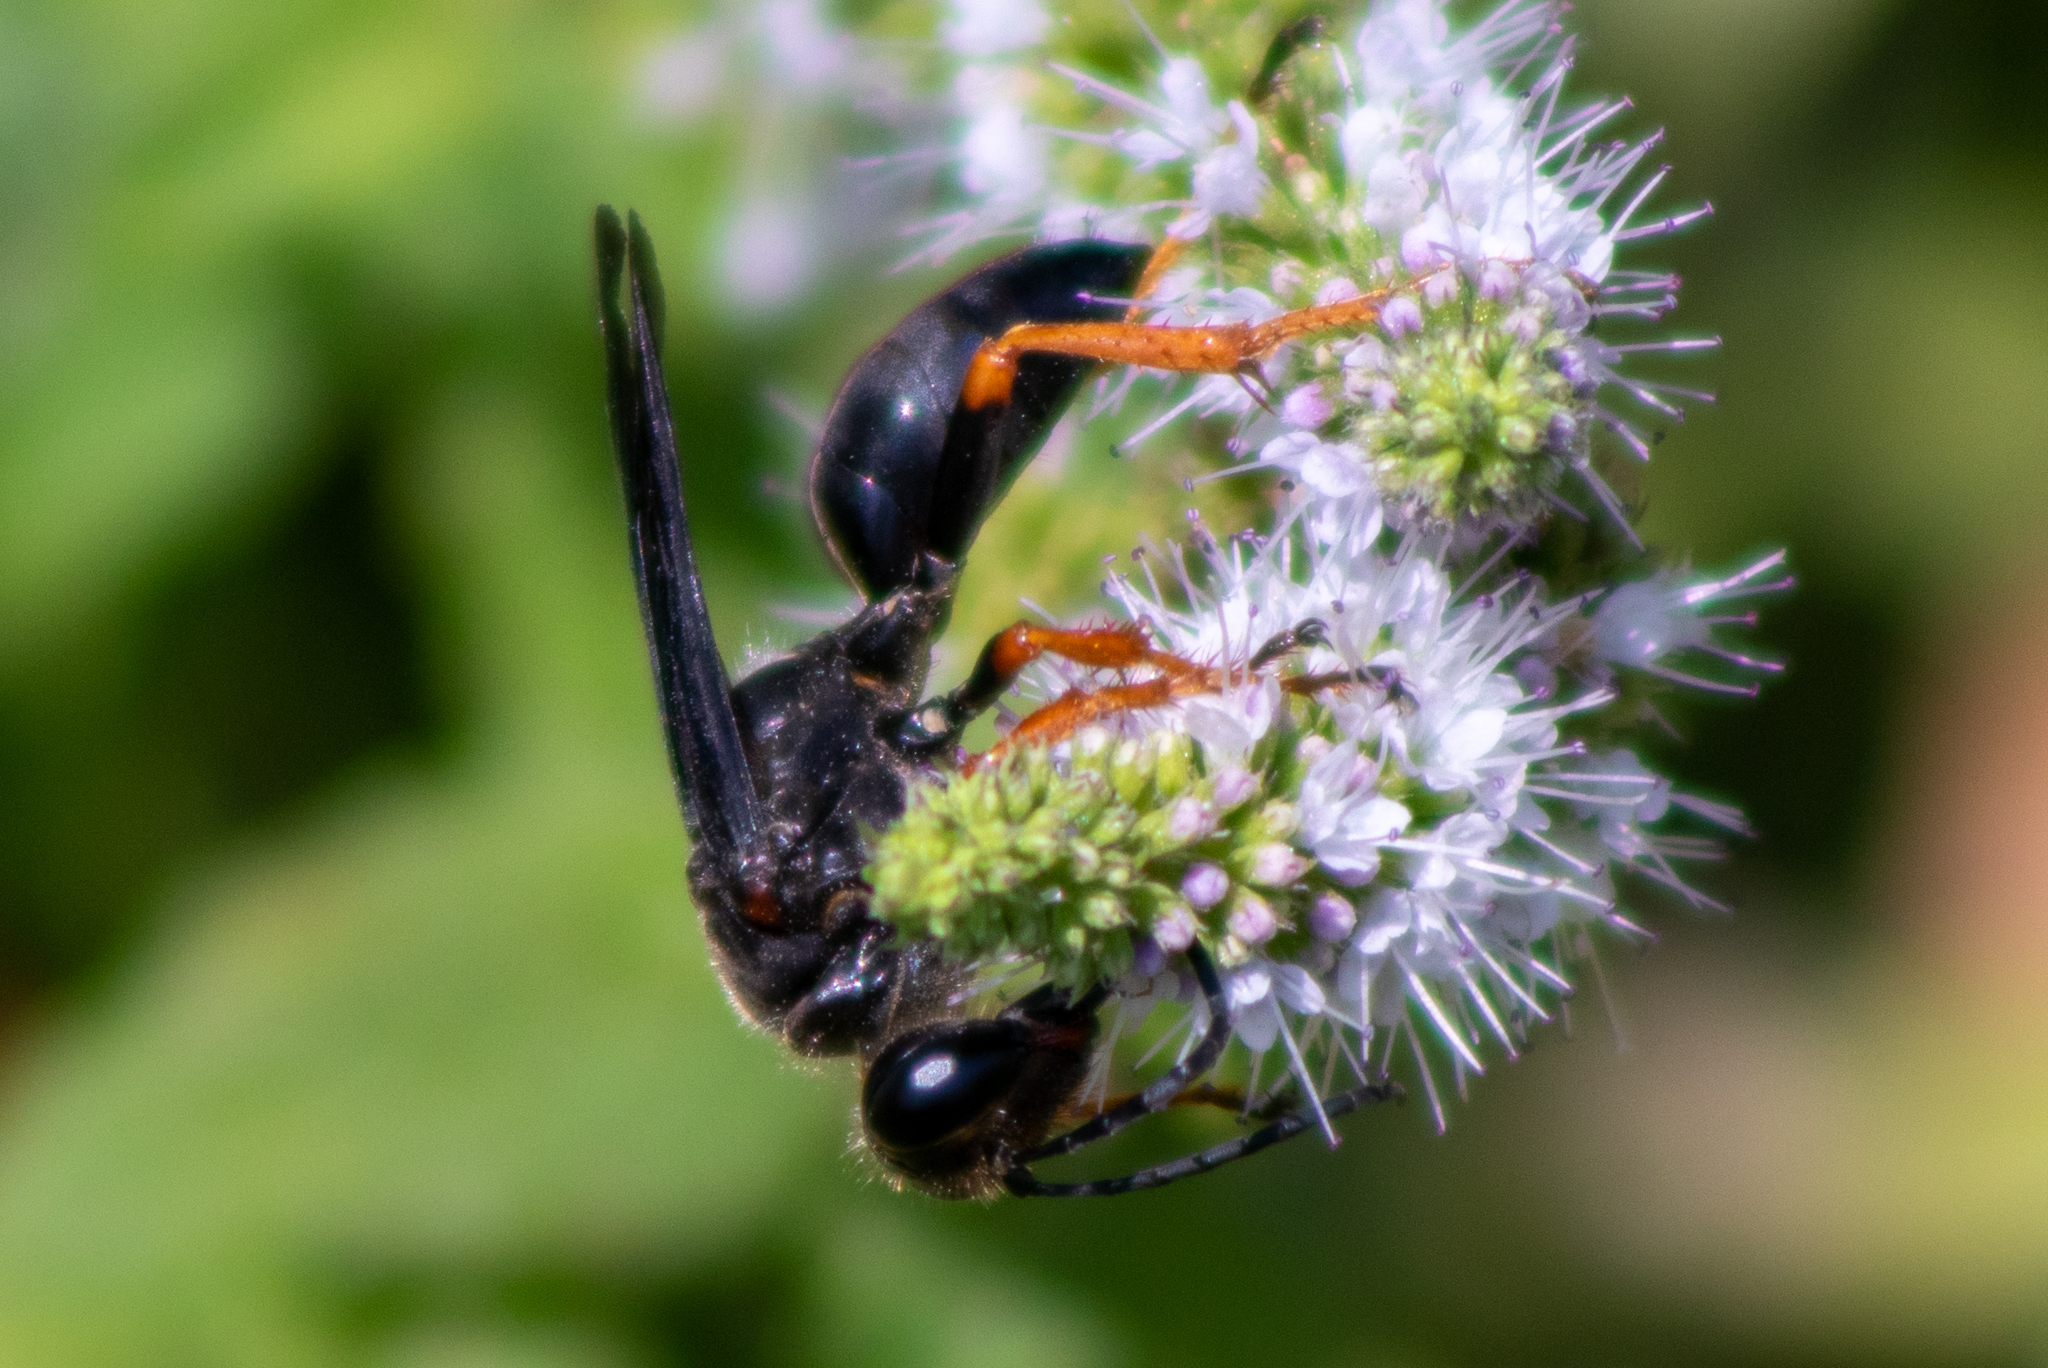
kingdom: Animalia
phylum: Arthropoda
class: Insecta
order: Hymenoptera
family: Sphecidae
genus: Sphex
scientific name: Sphex nudus
